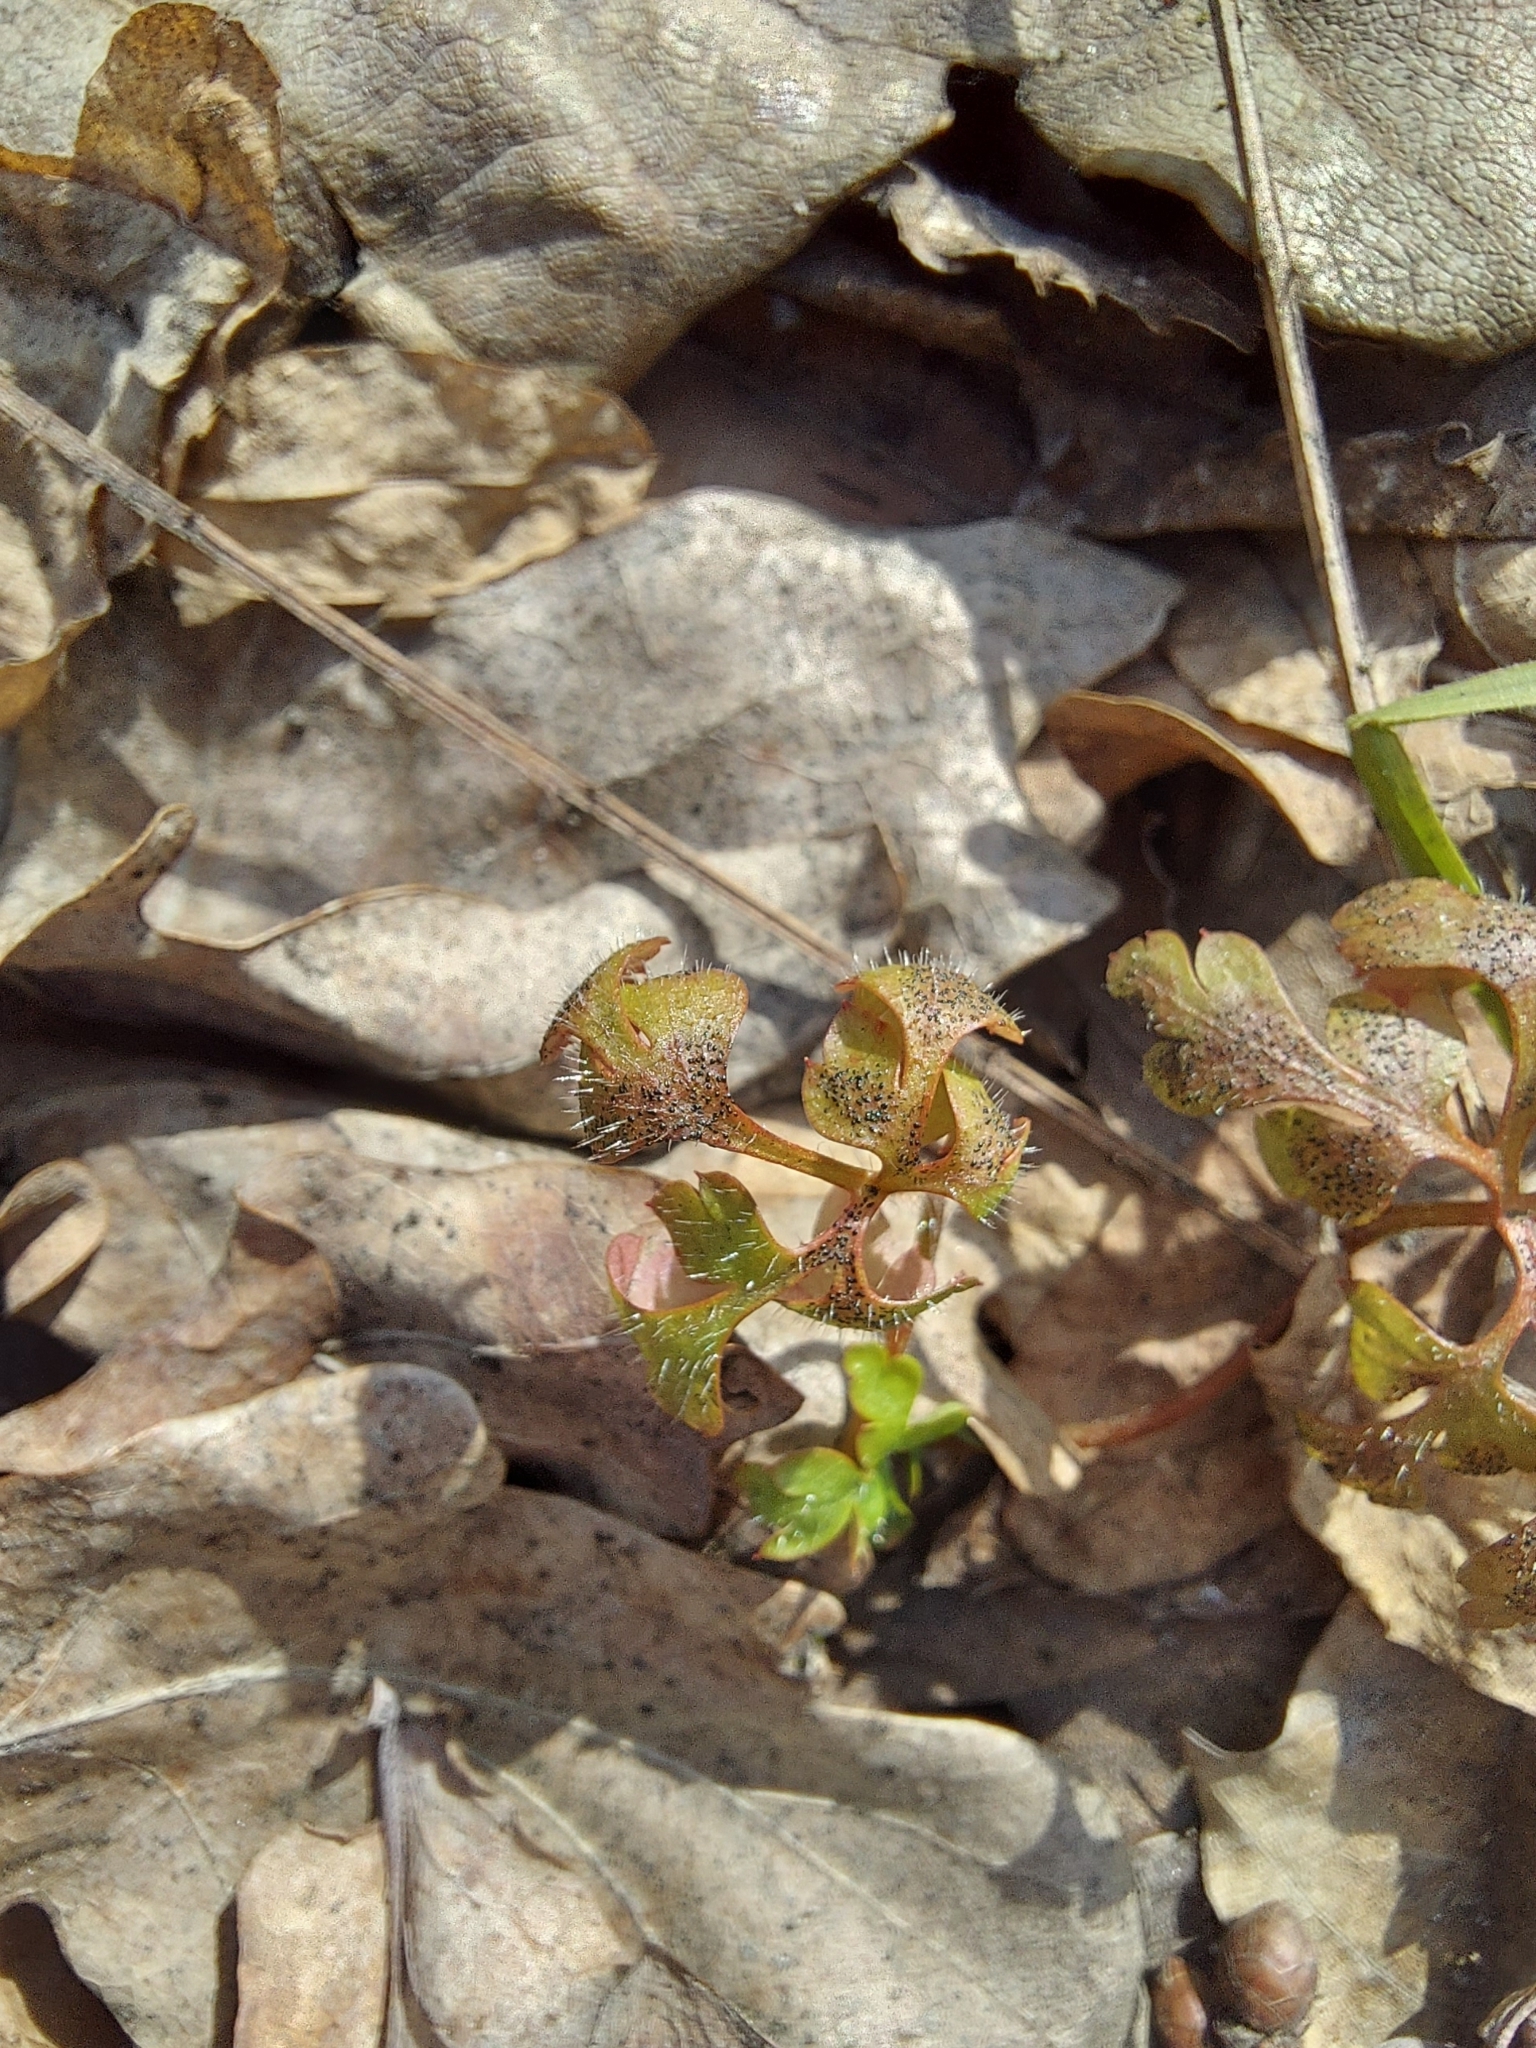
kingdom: Plantae
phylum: Tracheophyta
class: Magnoliopsida
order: Geraniales
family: Geraniaceae
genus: Geranium
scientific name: Geranium robertianum
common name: Herb-robert
